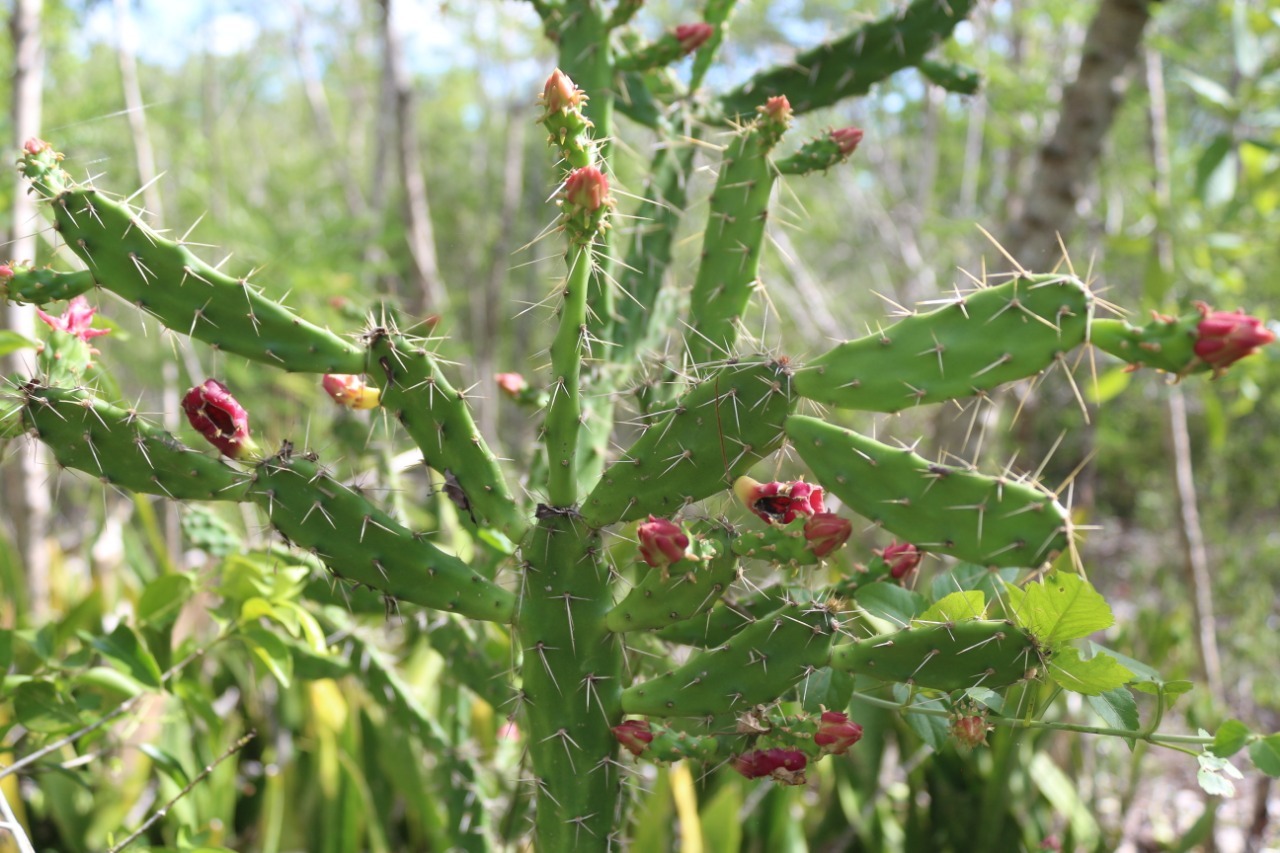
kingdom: Plantae
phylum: Tracheophyta
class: Magnoliopsida
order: Caryophyllales
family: Cactaceae
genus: Opuntia
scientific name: Opuntia inaperta
